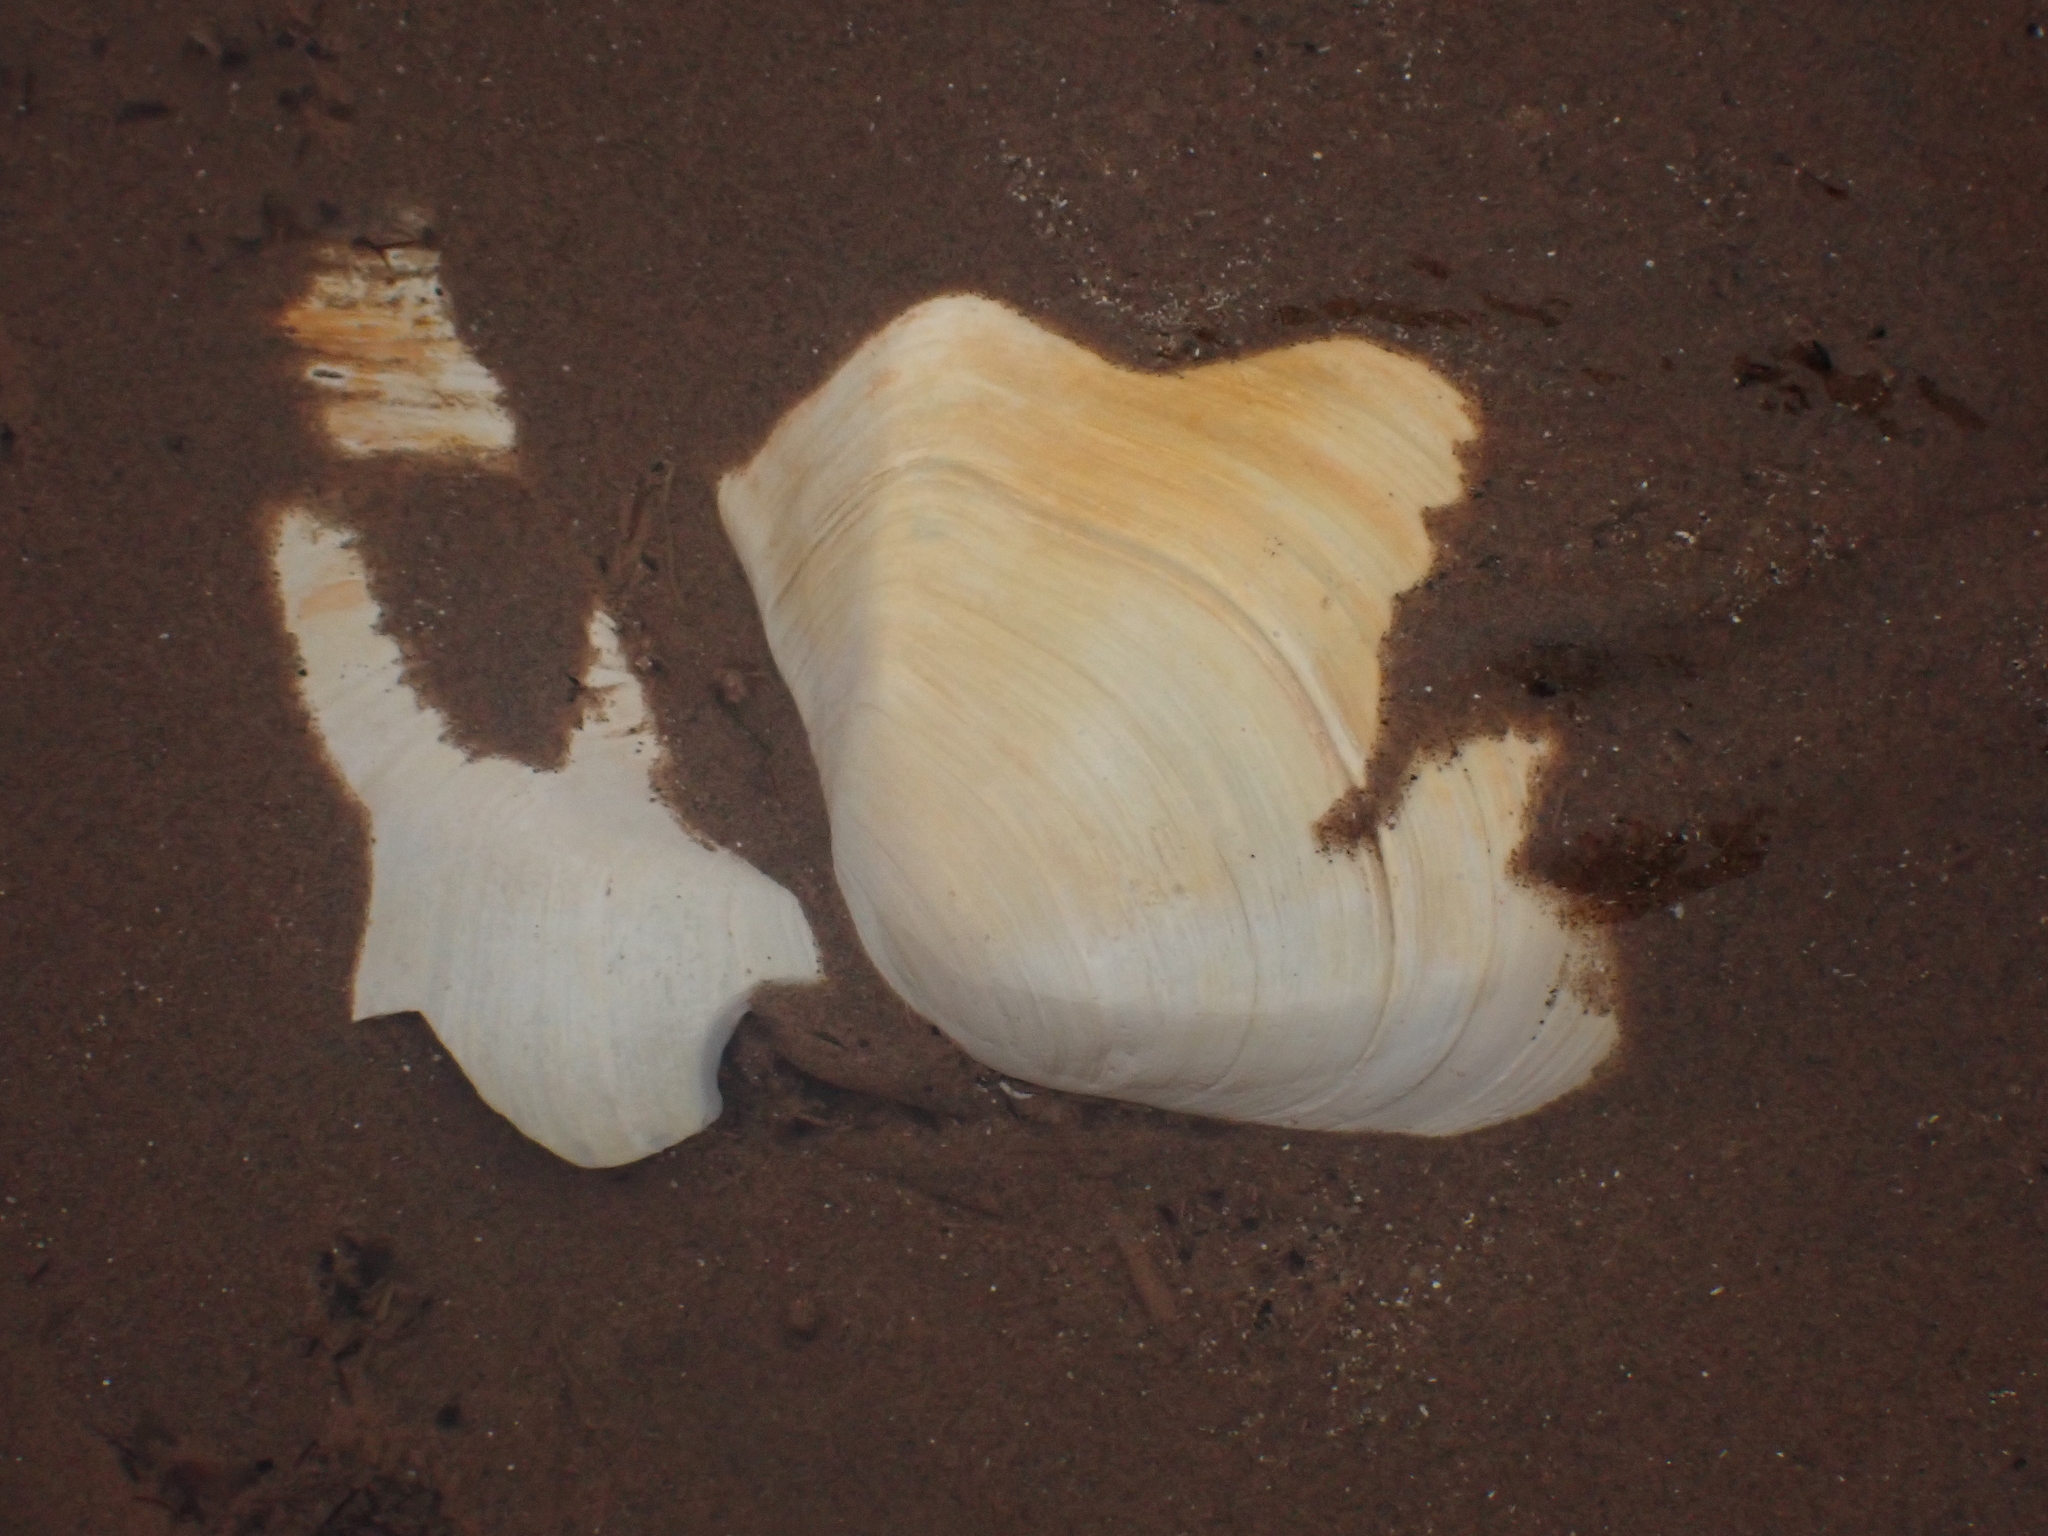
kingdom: Animalia
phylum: Mollusca
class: Bivalvia
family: Thraciidae
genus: Thracia
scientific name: Thracia conradi
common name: Conrad thracia
